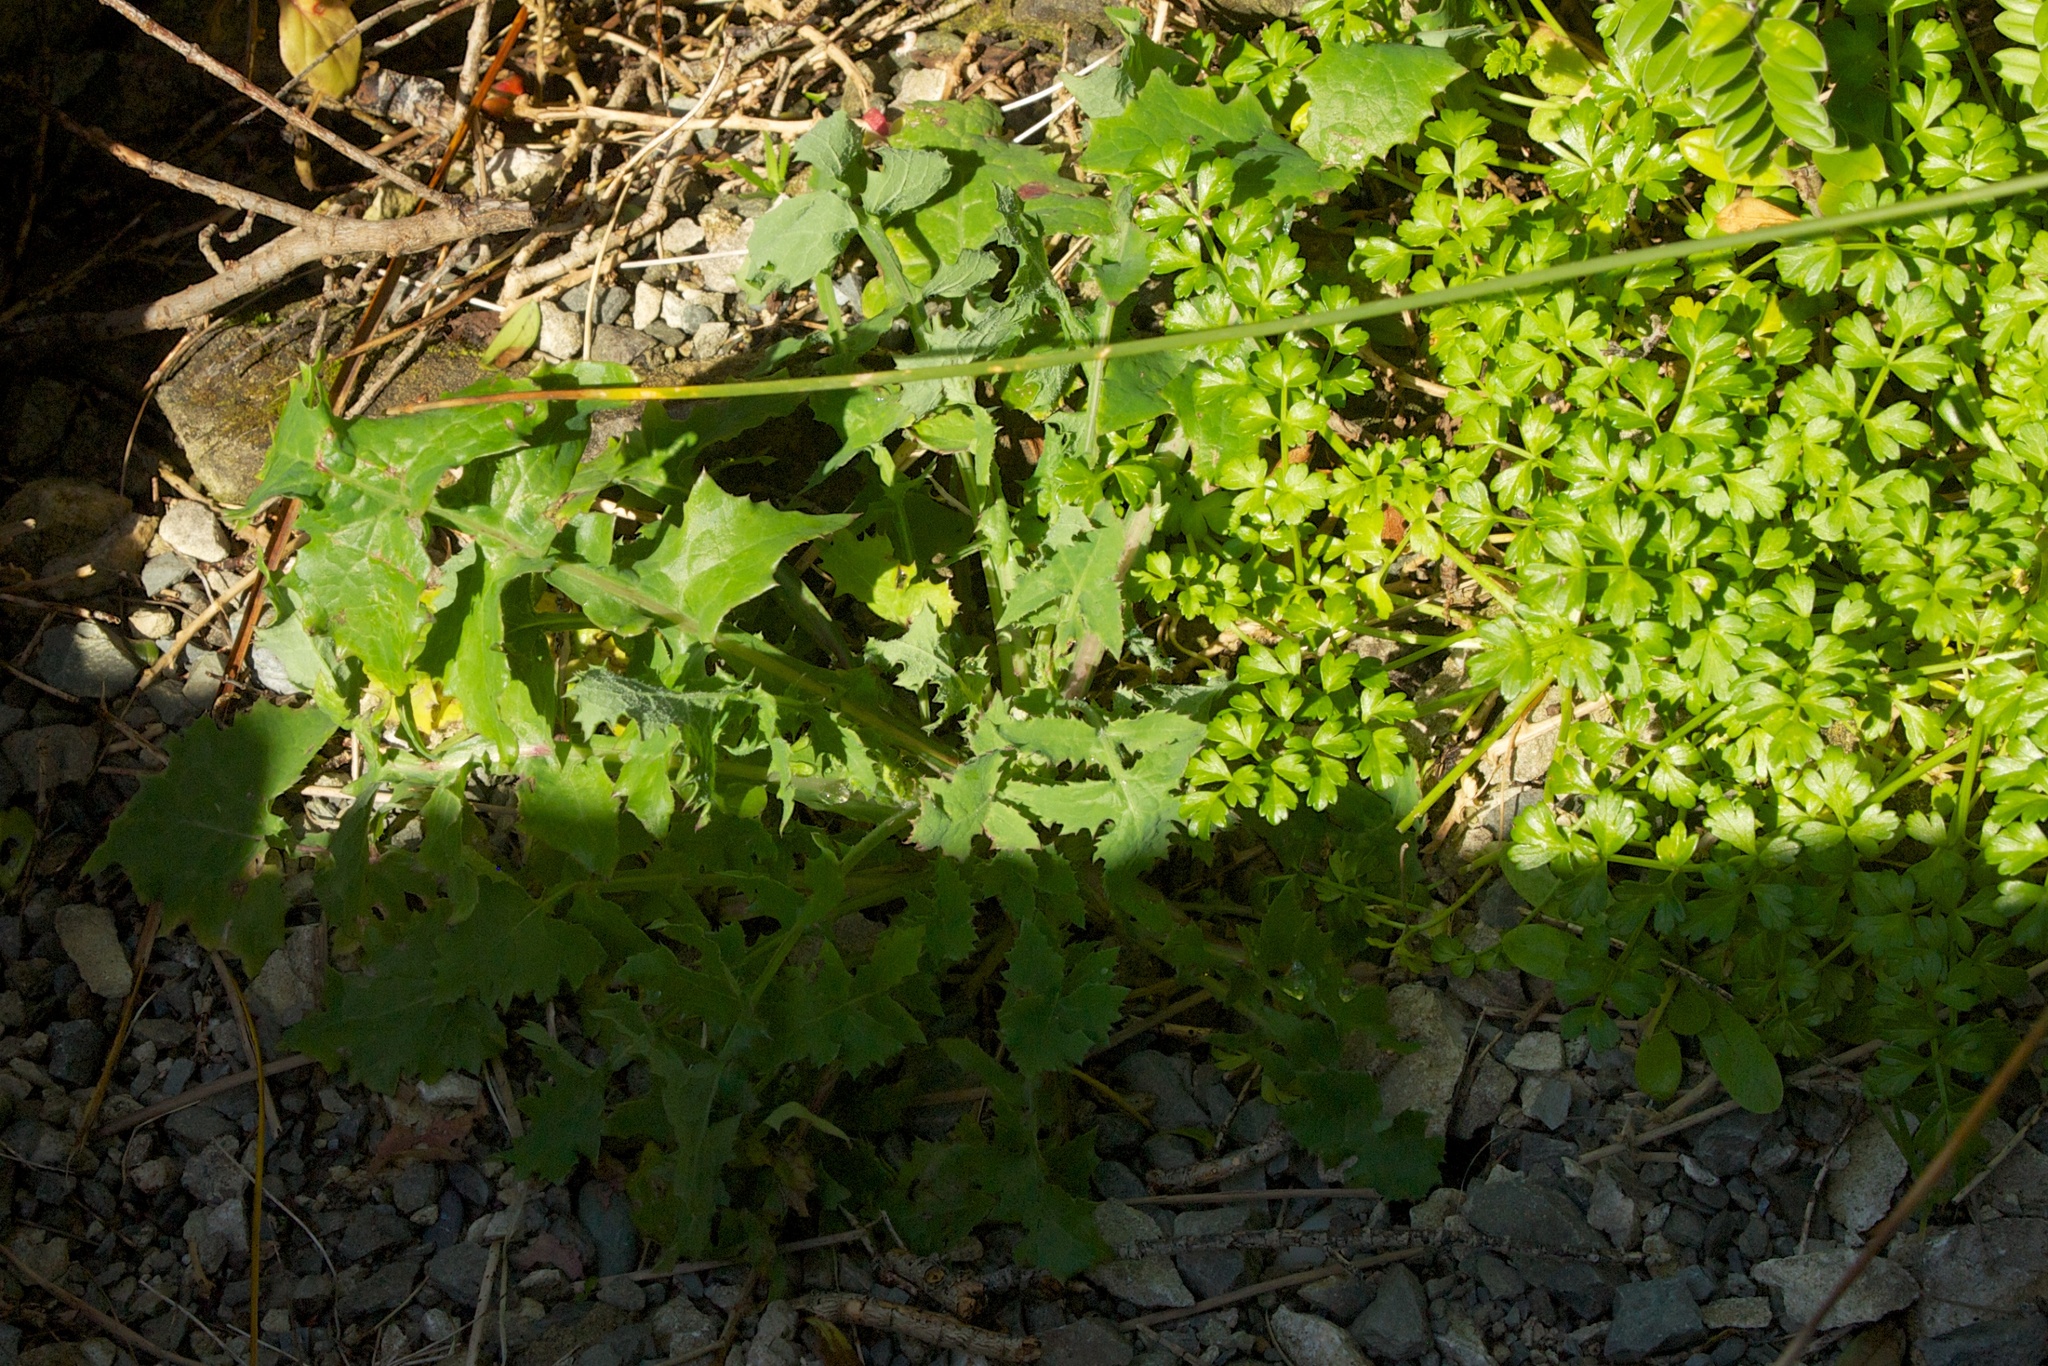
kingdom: Plantae
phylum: Tracheophyta
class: Magnoliopsida
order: Asterales
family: Asteraceae
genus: Sonchus
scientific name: Sonchus oleraceus
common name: Common sowthistle
